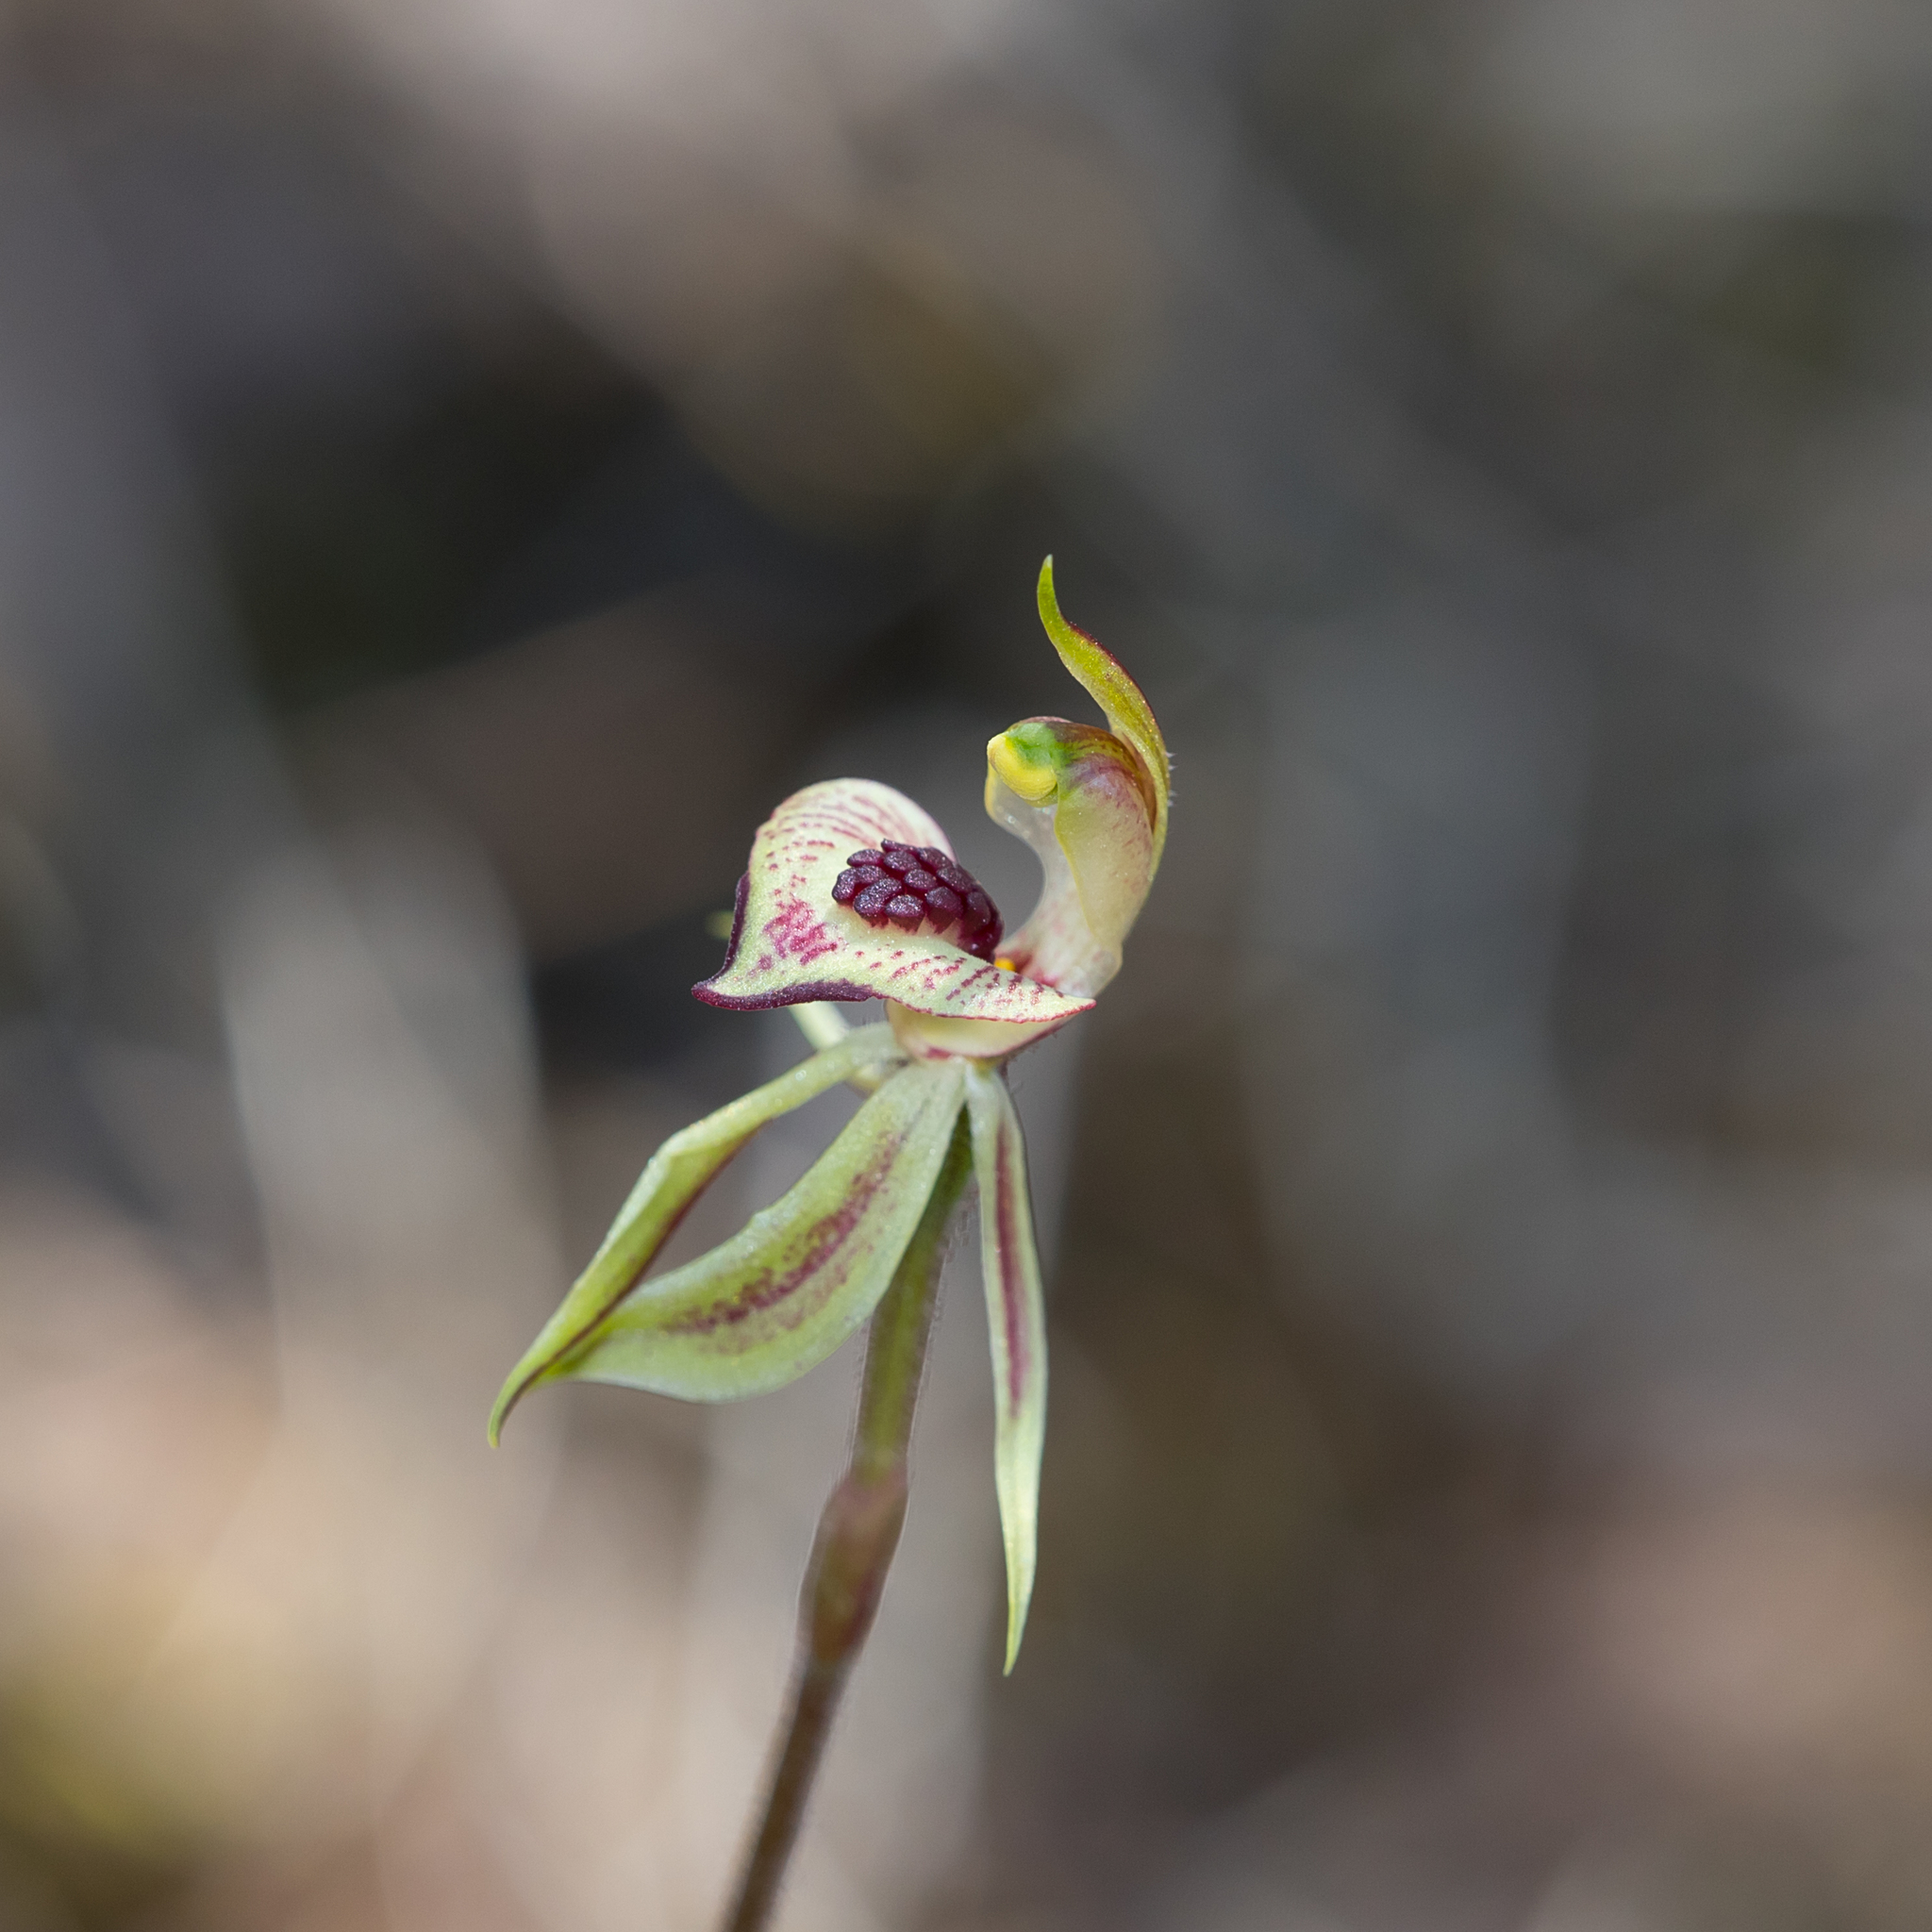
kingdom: Plantae
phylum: Tracheophyta
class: Liliopsida
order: Asparagales
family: Orchidaceae
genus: Caladenia
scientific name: Caladenia cardiochila
